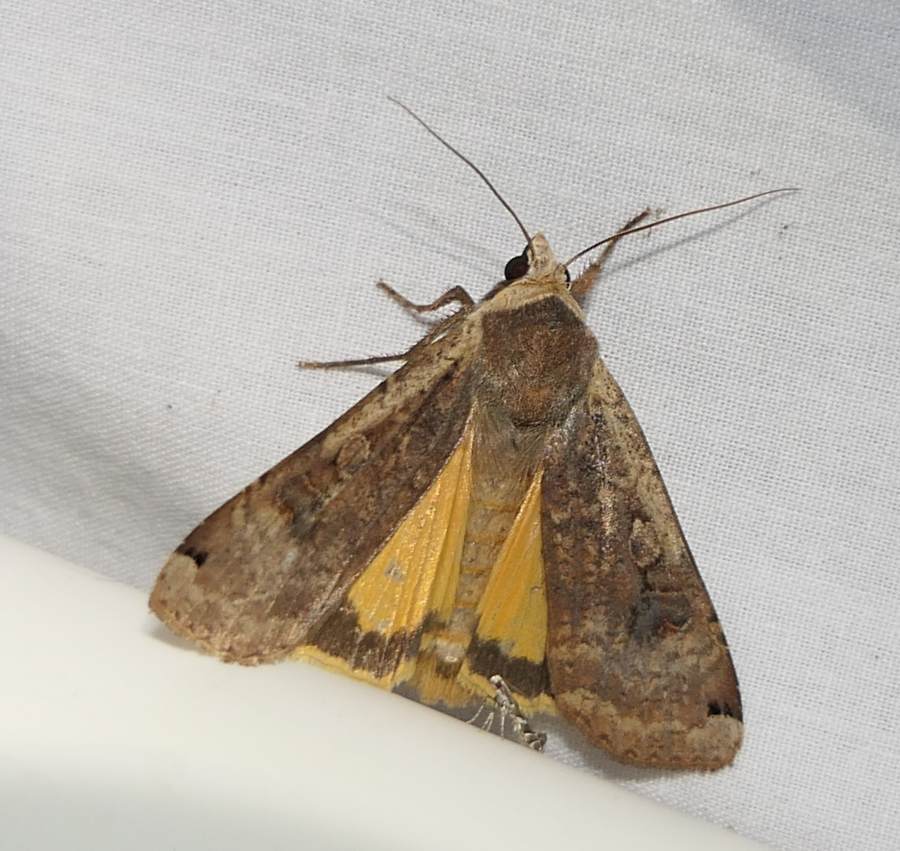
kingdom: Animalia
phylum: Arthropoda
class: Insecta
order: Lepidoptera
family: Noctuidae
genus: Noctua
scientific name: Noctua pronuba
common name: Large yellow underwing
